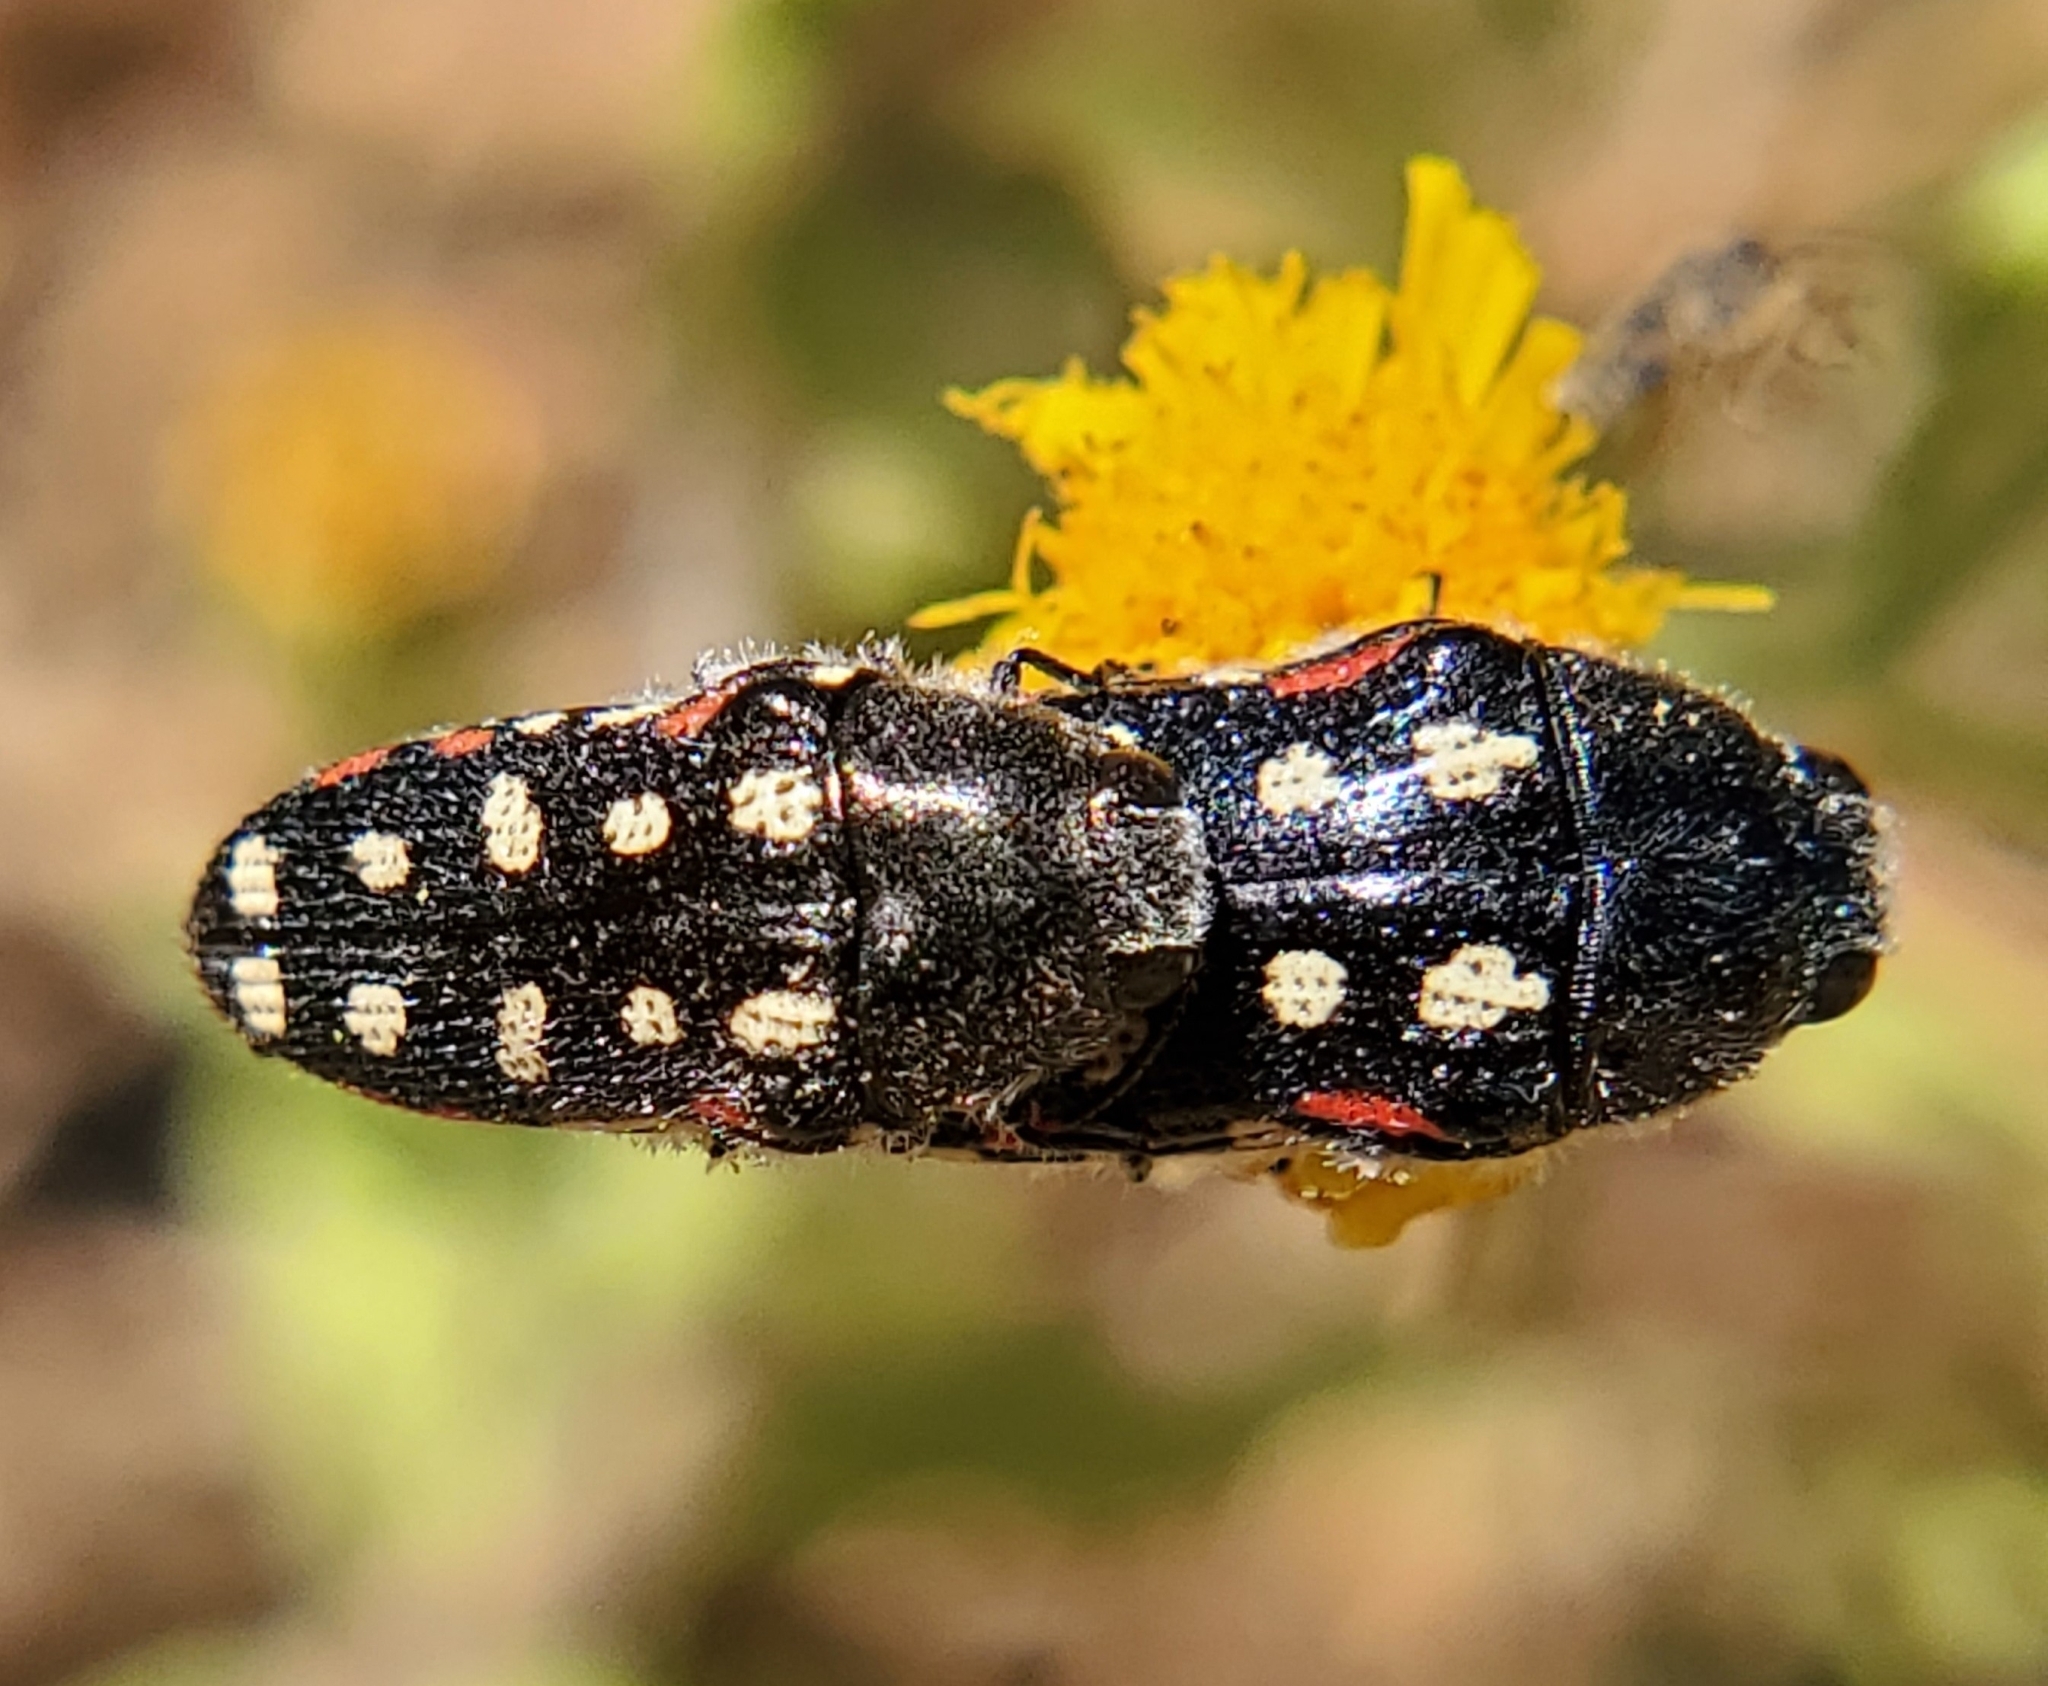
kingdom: Animalia
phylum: Arthropoda
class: Insecta
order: Coleoptera
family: Buprestidae
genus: Acmaeodera
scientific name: Acmaeodera gibbula
